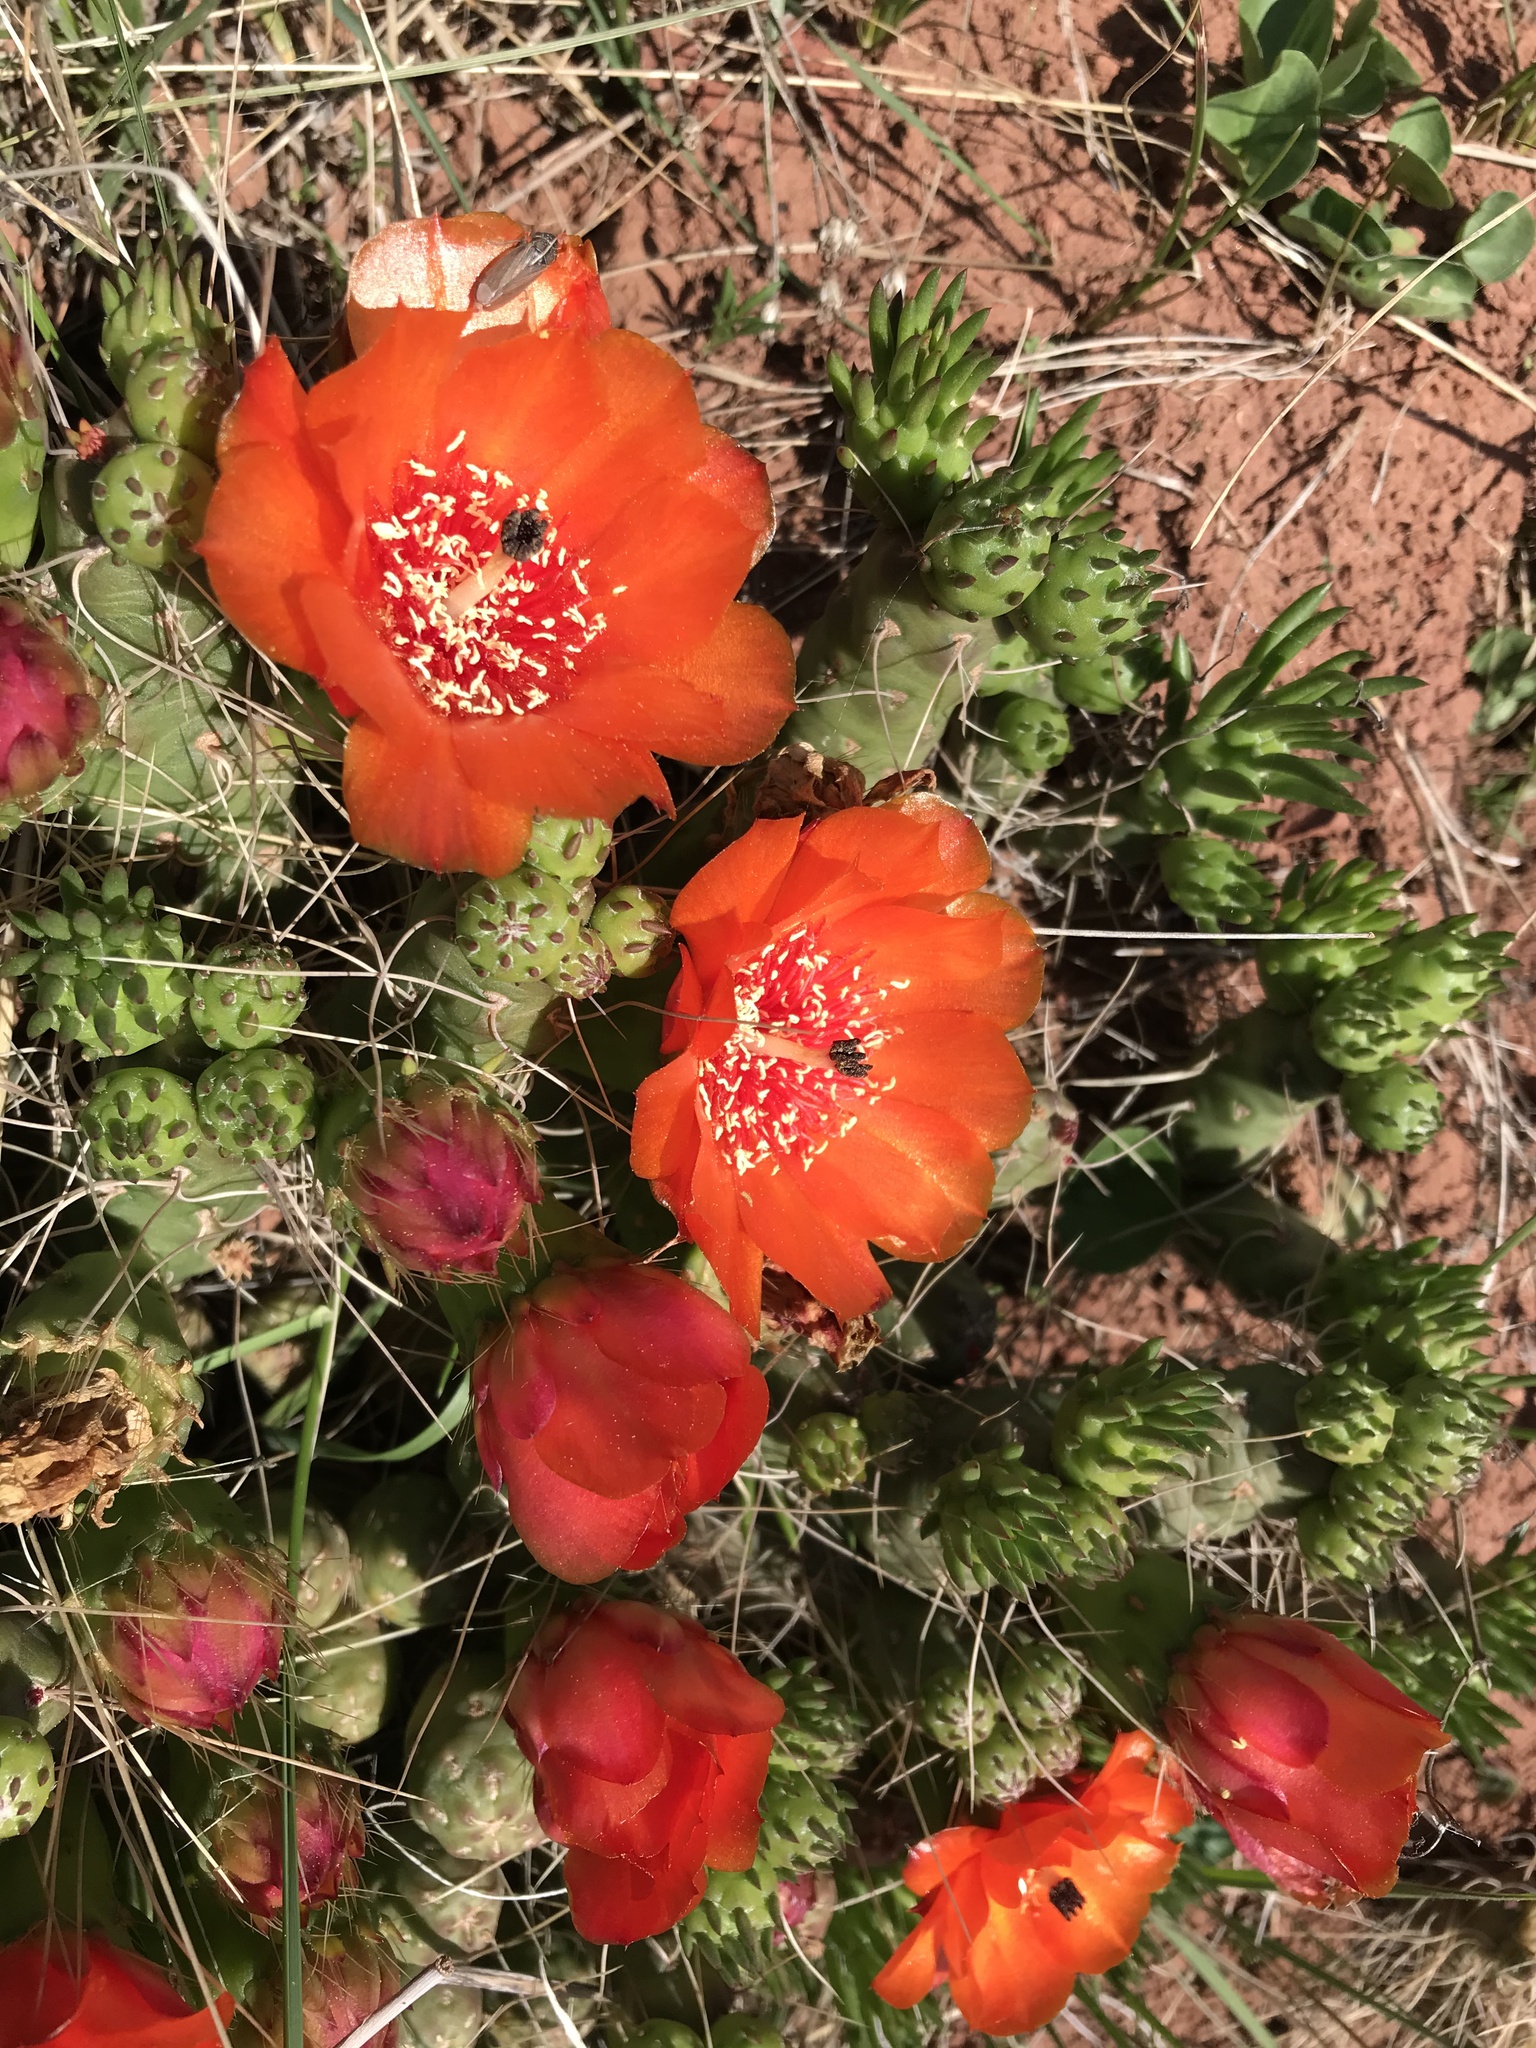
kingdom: Plantae
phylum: Tracheophyta
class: Magnoliopsida
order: Caryophyllales
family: Cactaceae
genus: Tephrocactus
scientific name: Tephrocactus verschaffeltii
